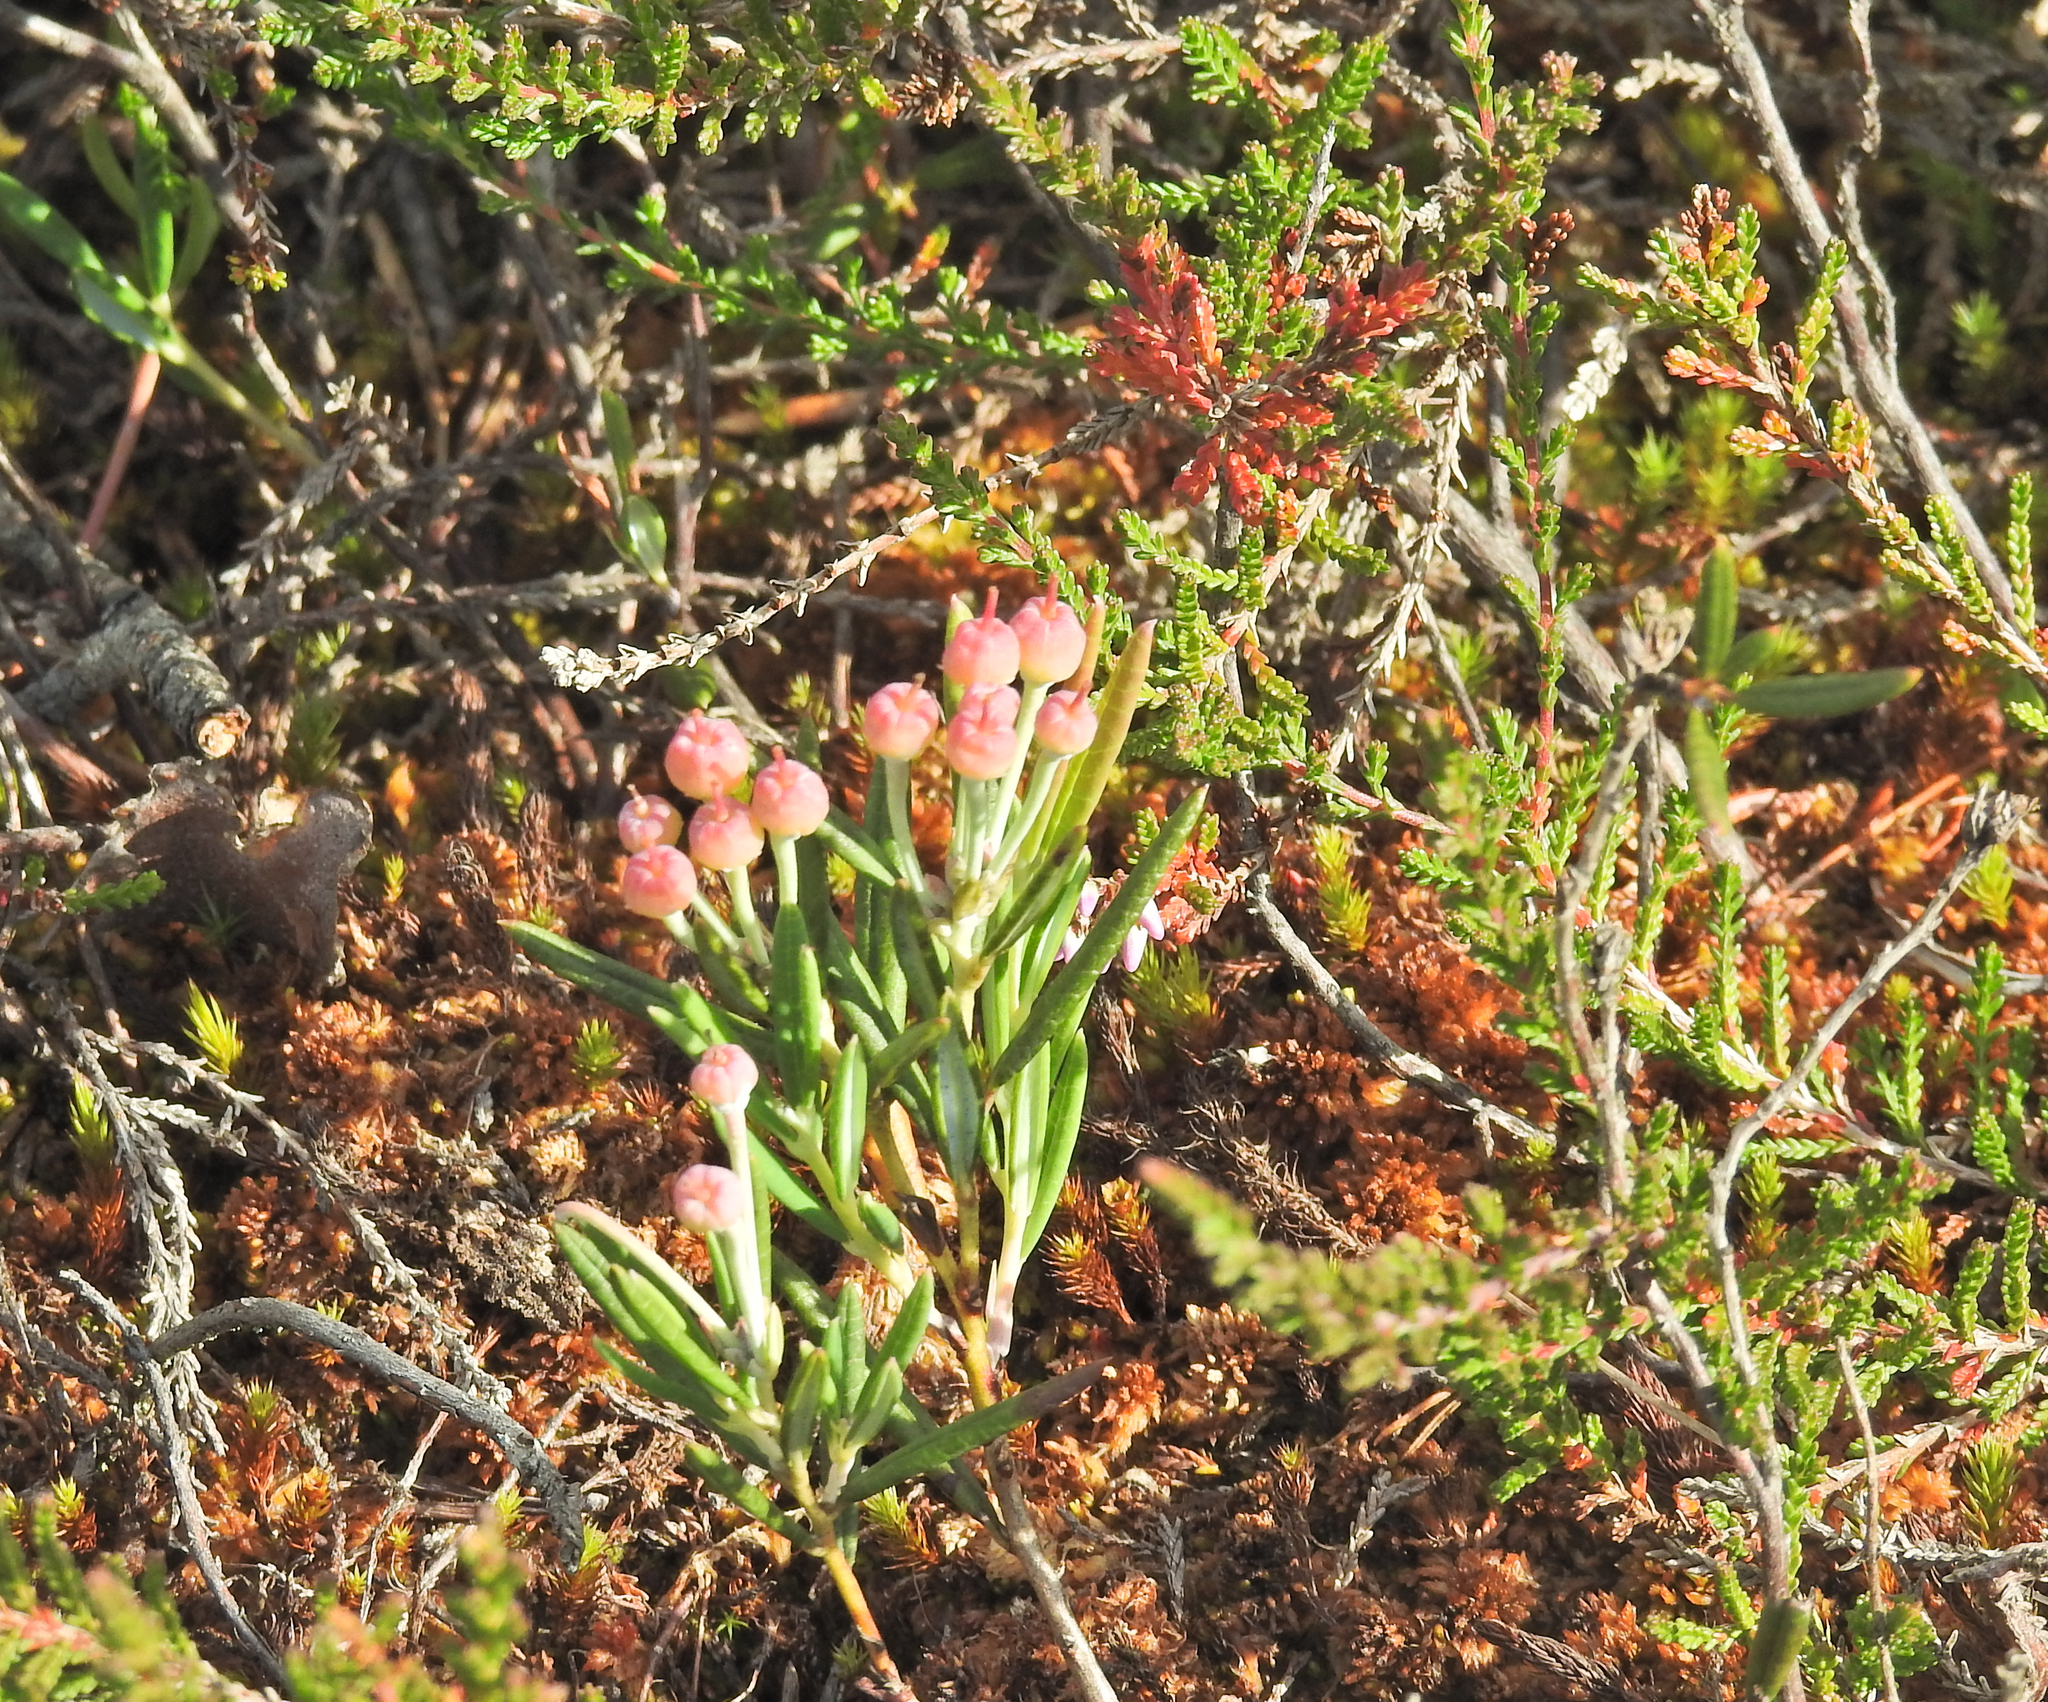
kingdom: Plantae
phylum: Tracheophyta
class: Magnoliopsida
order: Ericales
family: Ericaceae
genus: Andromeda
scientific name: Andromeda polifolia
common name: Bog-rosemary
